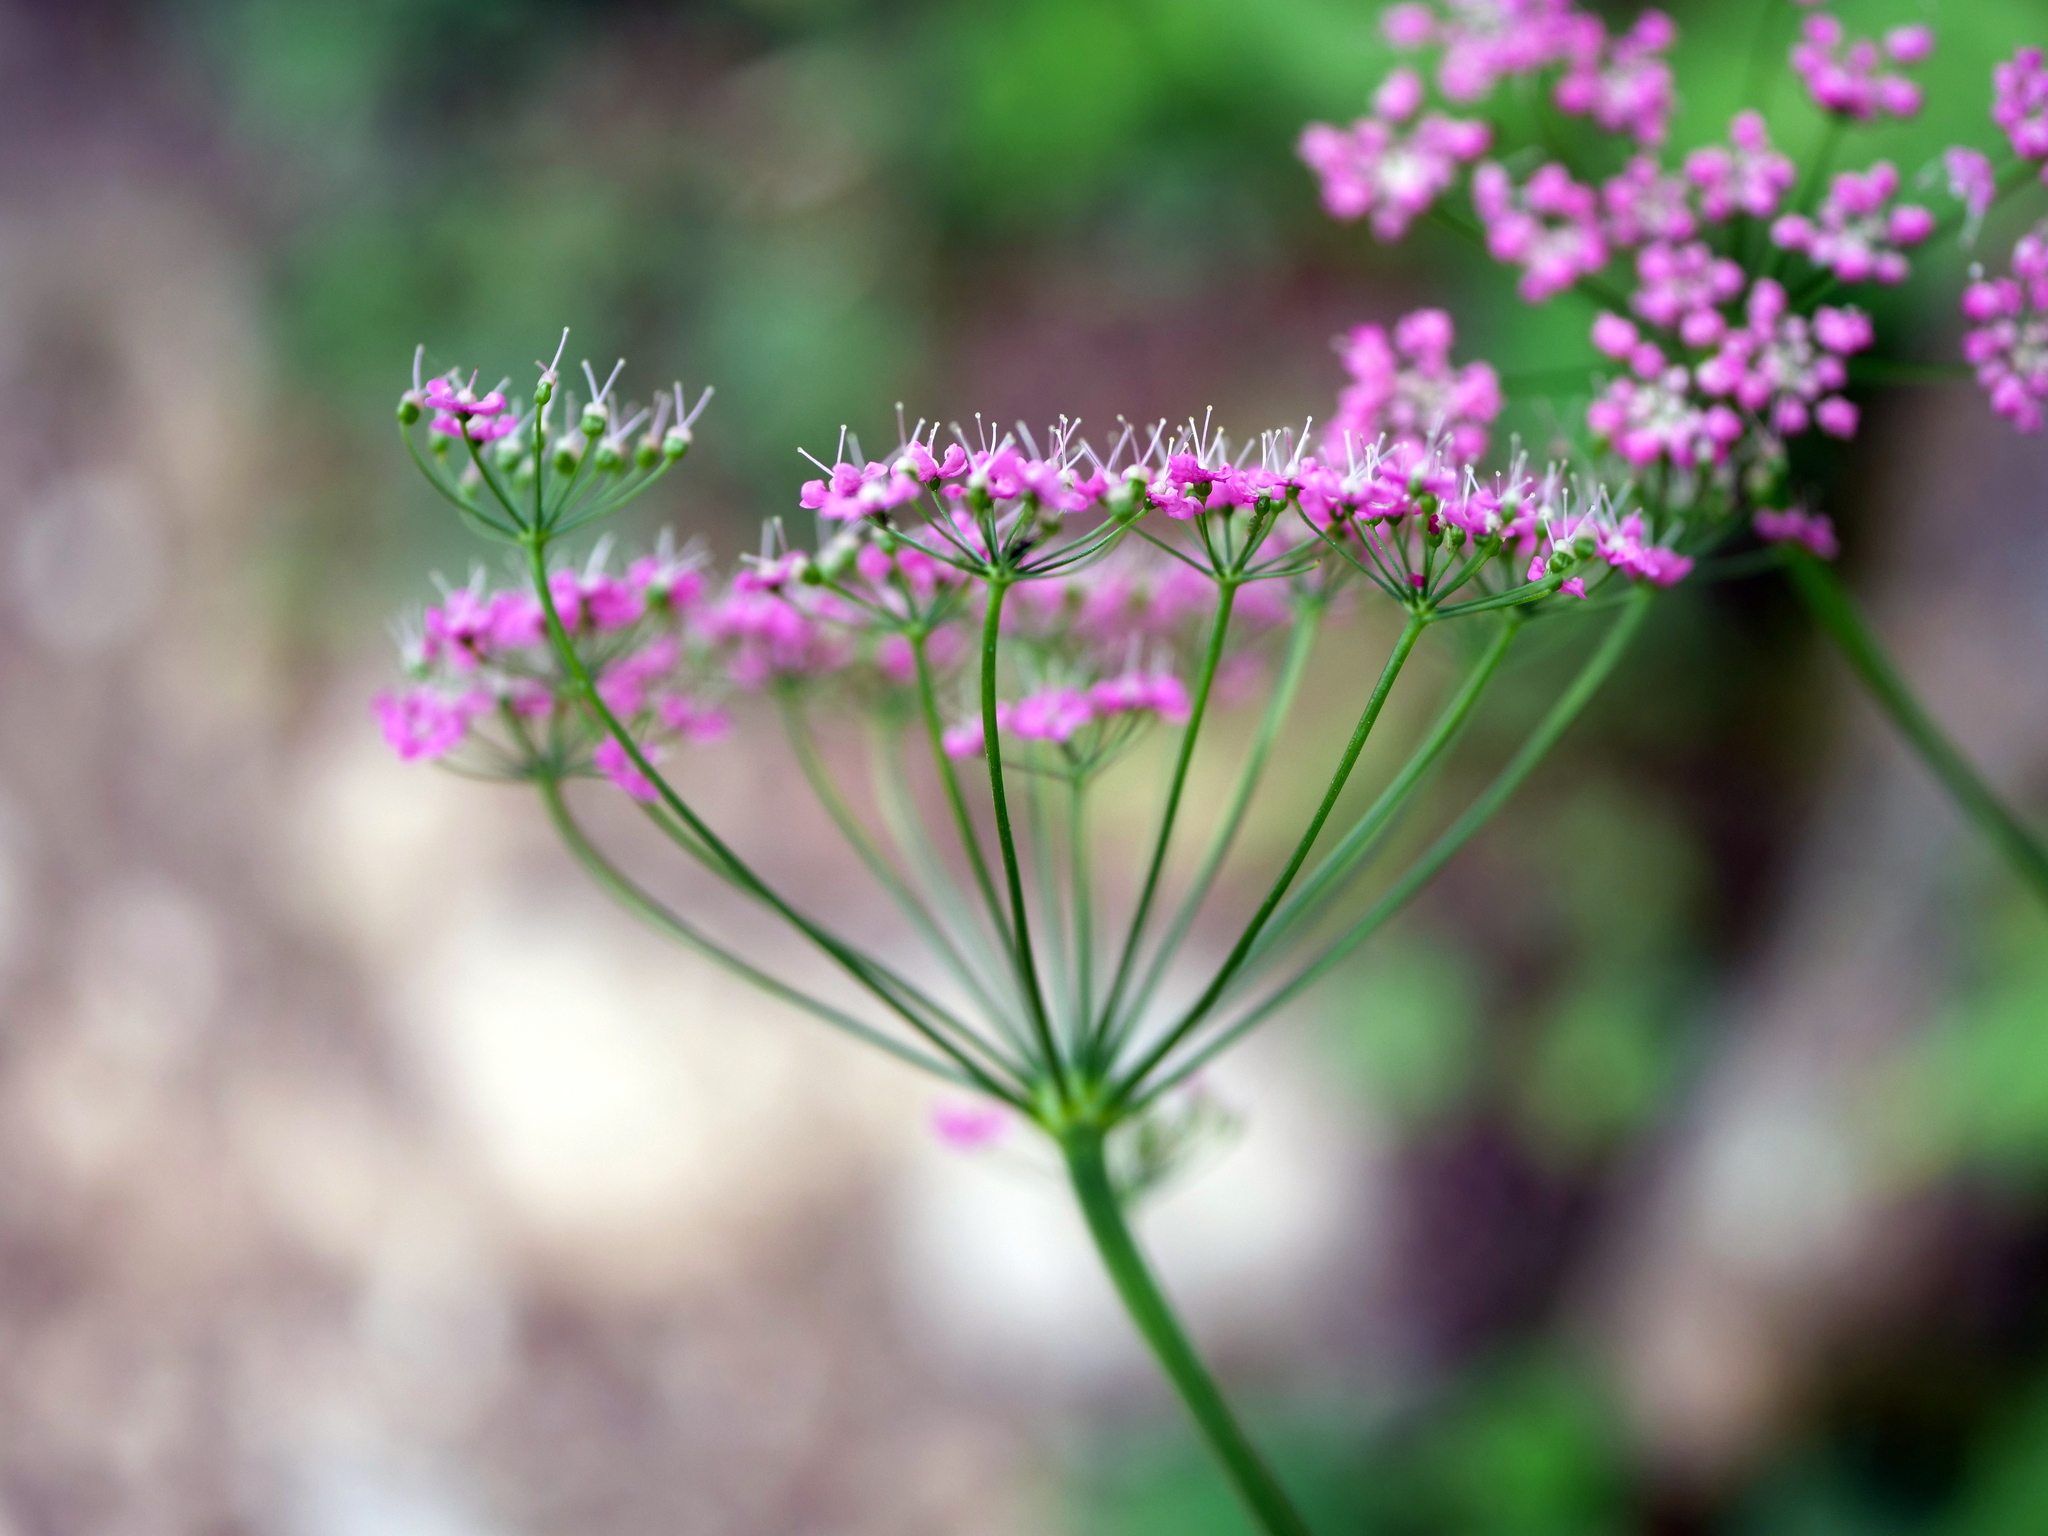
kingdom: Plantae
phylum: Tracheophyta
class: Magnoliopsida
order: Apiales
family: Apiaceae
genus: Pimpinella
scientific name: Pimpinella major
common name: Greater burnet-saxifrage
